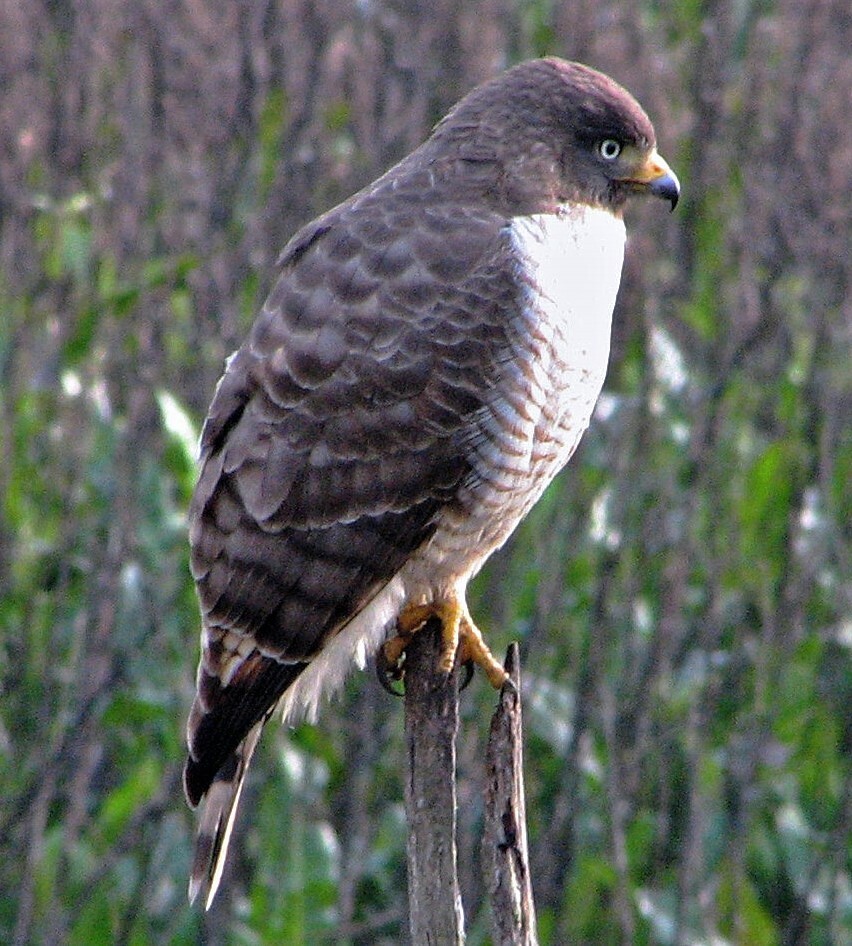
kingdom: Animalia
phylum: Chordata
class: Aves
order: Accipitriformes
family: Accipitridae
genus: Rupornis
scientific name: Rupornis magnirostris
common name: Roadside hawk
